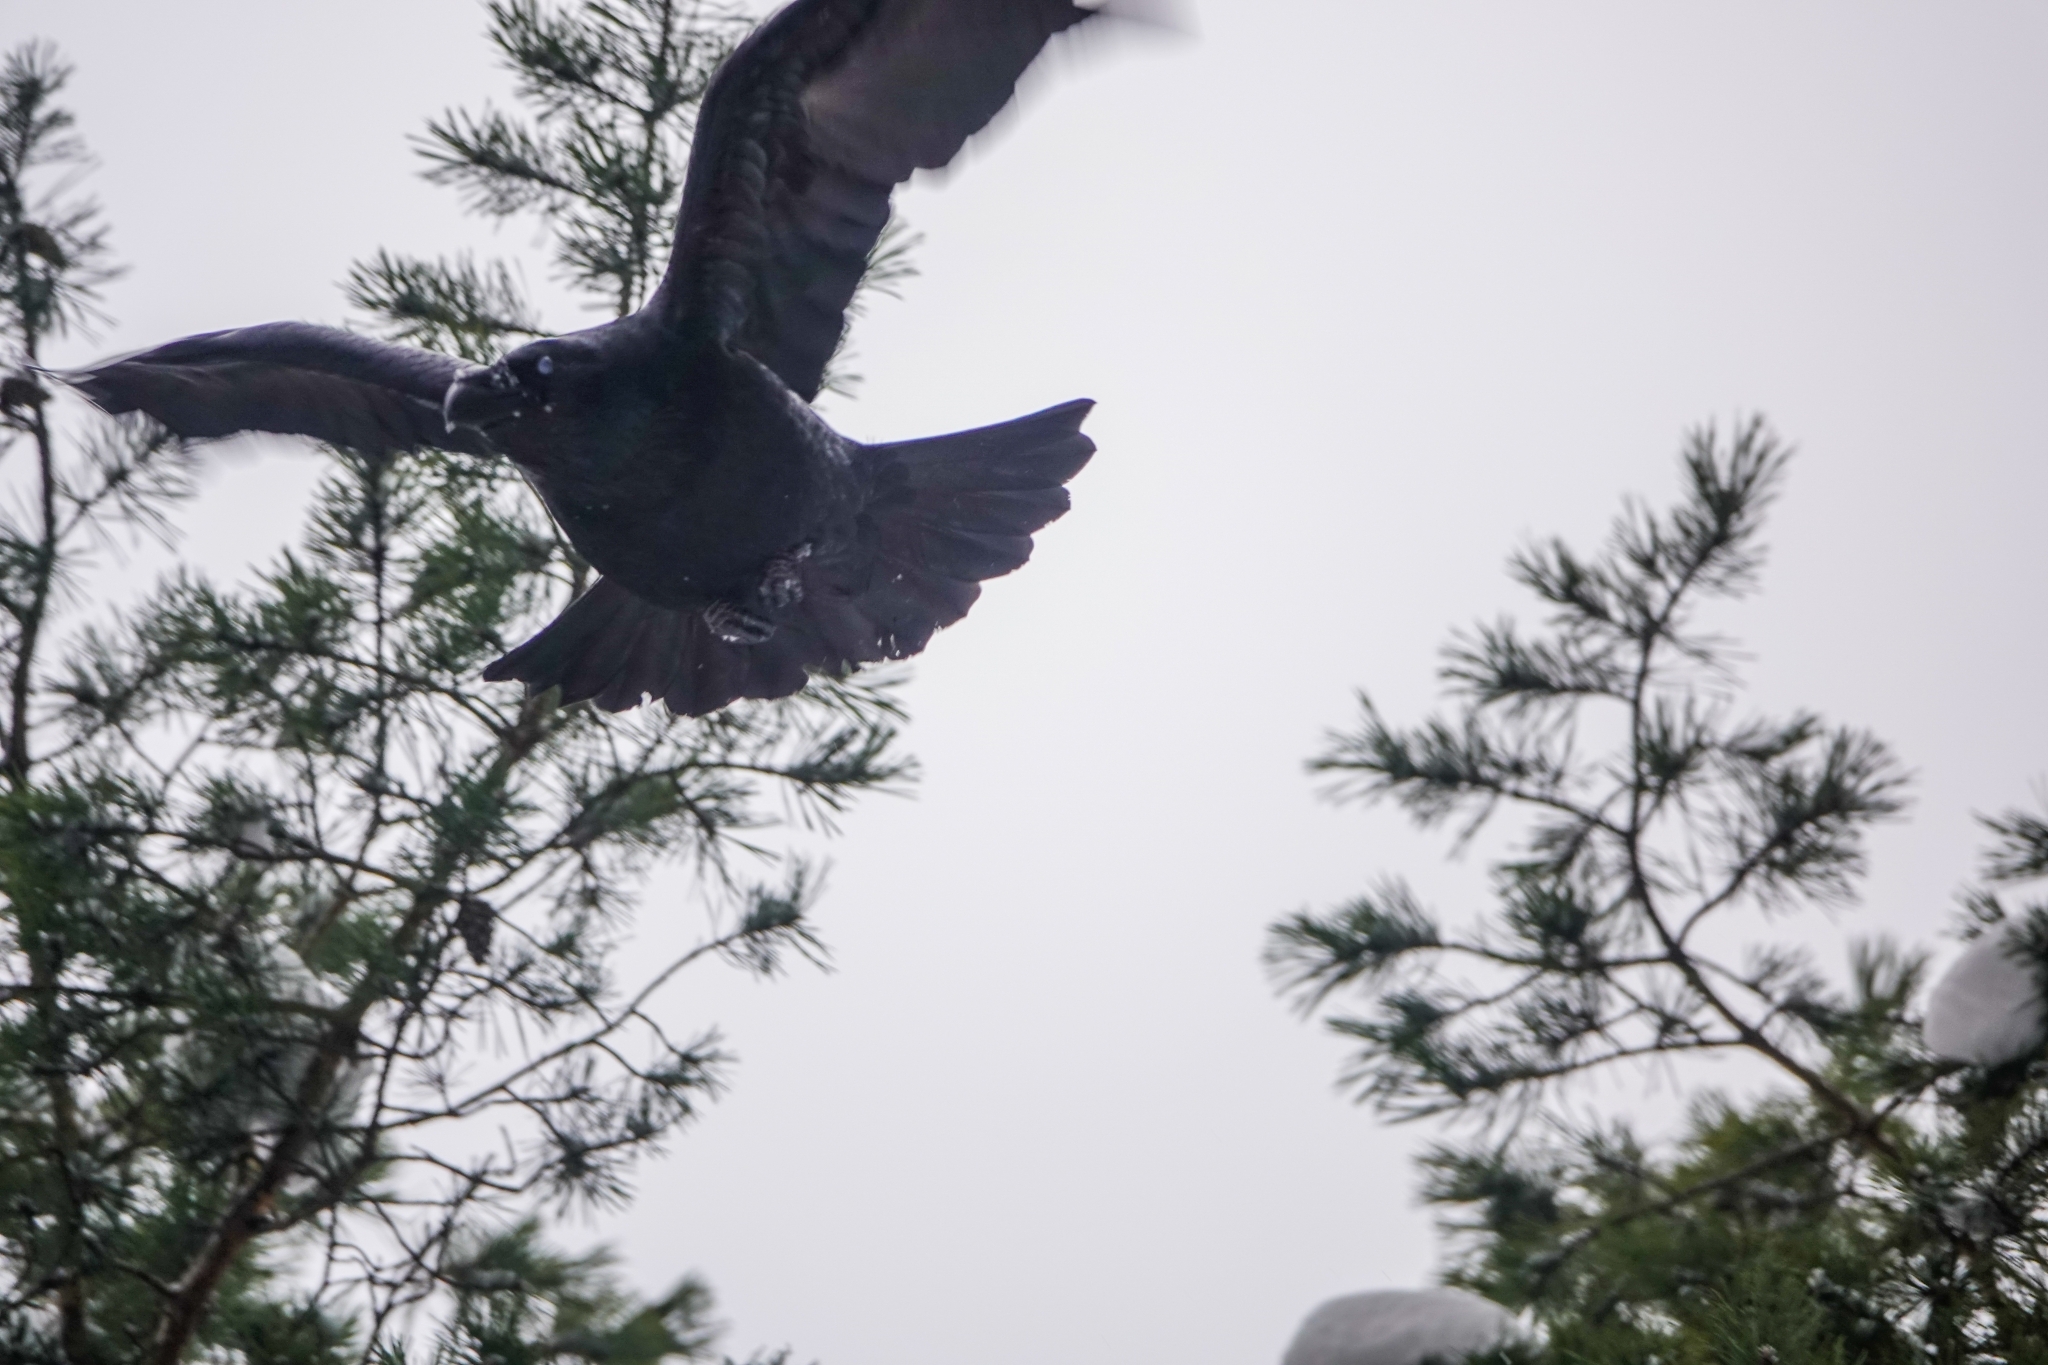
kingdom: Animalia
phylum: Chordata
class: Aves
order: Passeriformes
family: Corvidae
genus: Corvus
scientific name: Corvus corax
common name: Common raven
